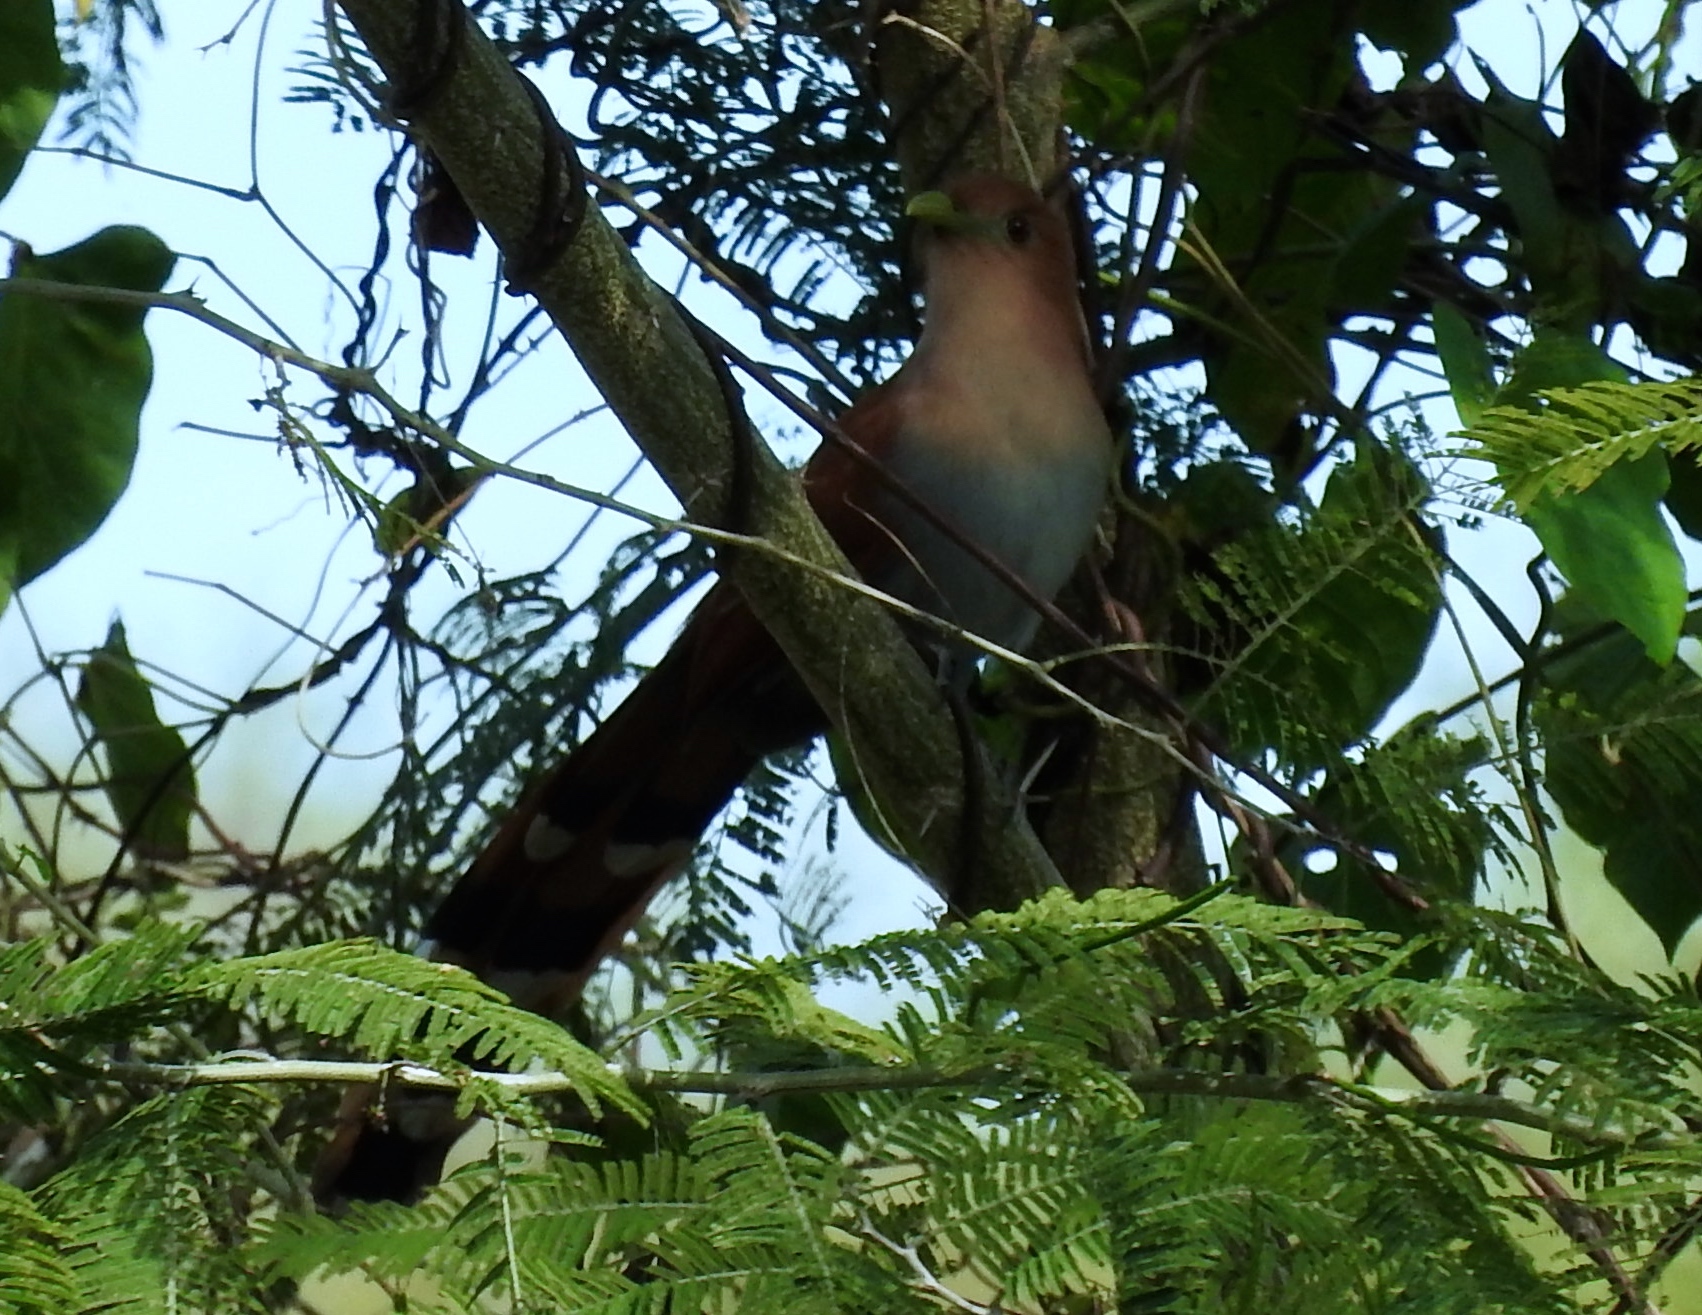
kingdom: Animalia
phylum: Chordata
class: Aves
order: Cuculiformes
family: Cuculidae
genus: Piaya
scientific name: Piaya cayana
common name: Squirrel cuckoo
